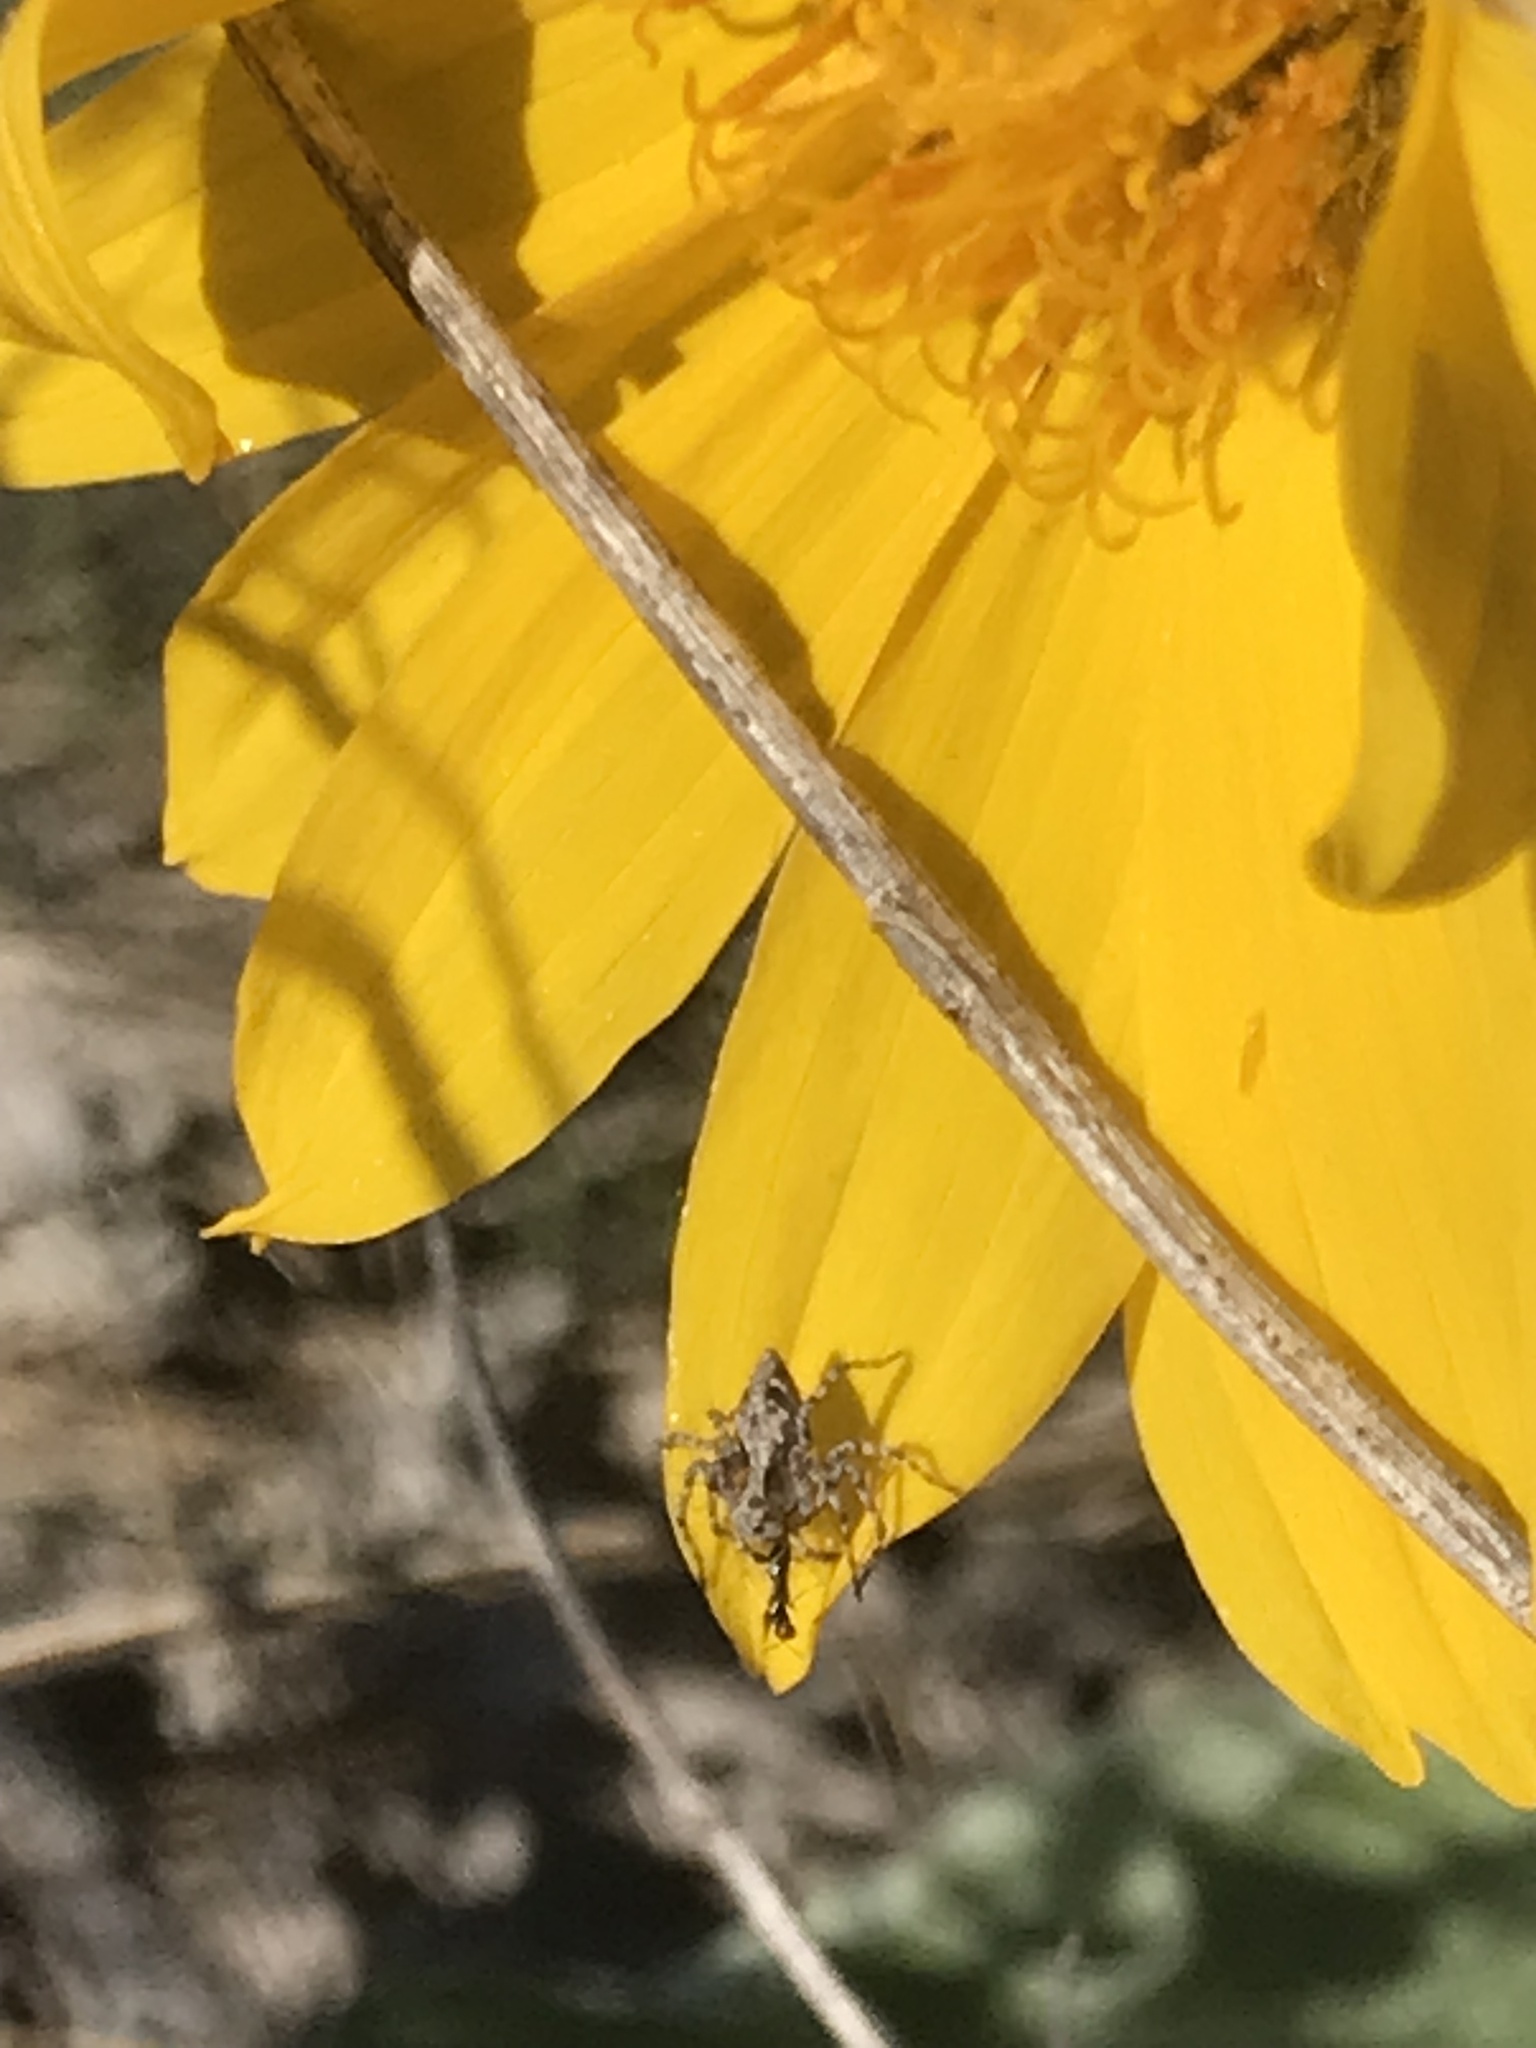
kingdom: Animalia
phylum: Arthropoda
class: Arachnida
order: Araneae
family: Oxyopidae
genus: Oxyopes
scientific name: Oxyopes scalaris
